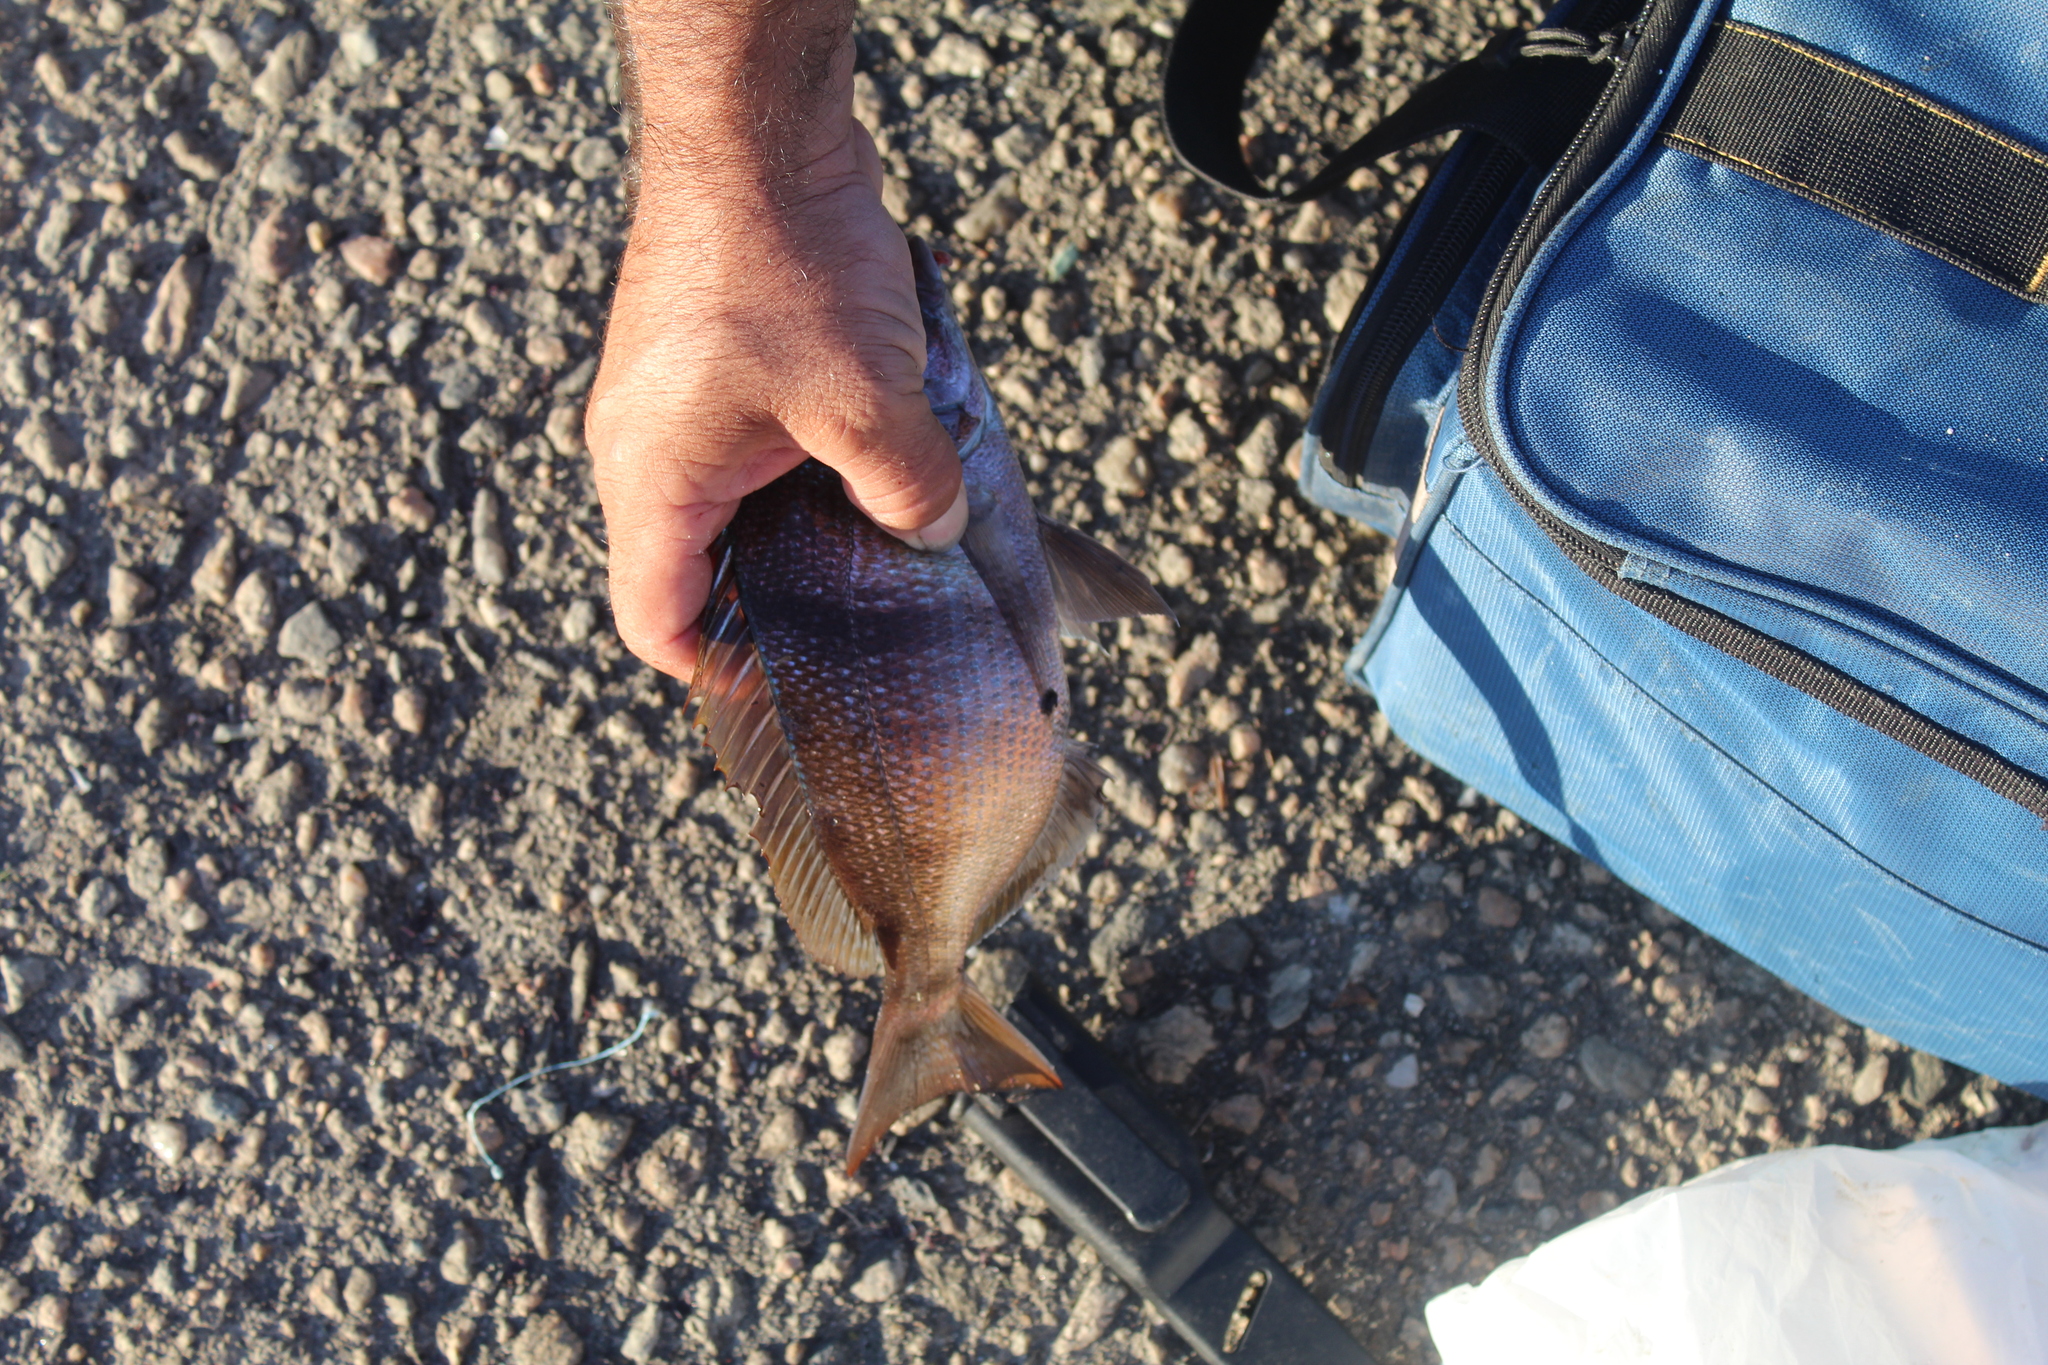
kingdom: Animalia
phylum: Chordata
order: Perciformes
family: Sparidae
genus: Stenotomus
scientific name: Stenotomus chrysops
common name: Scup
